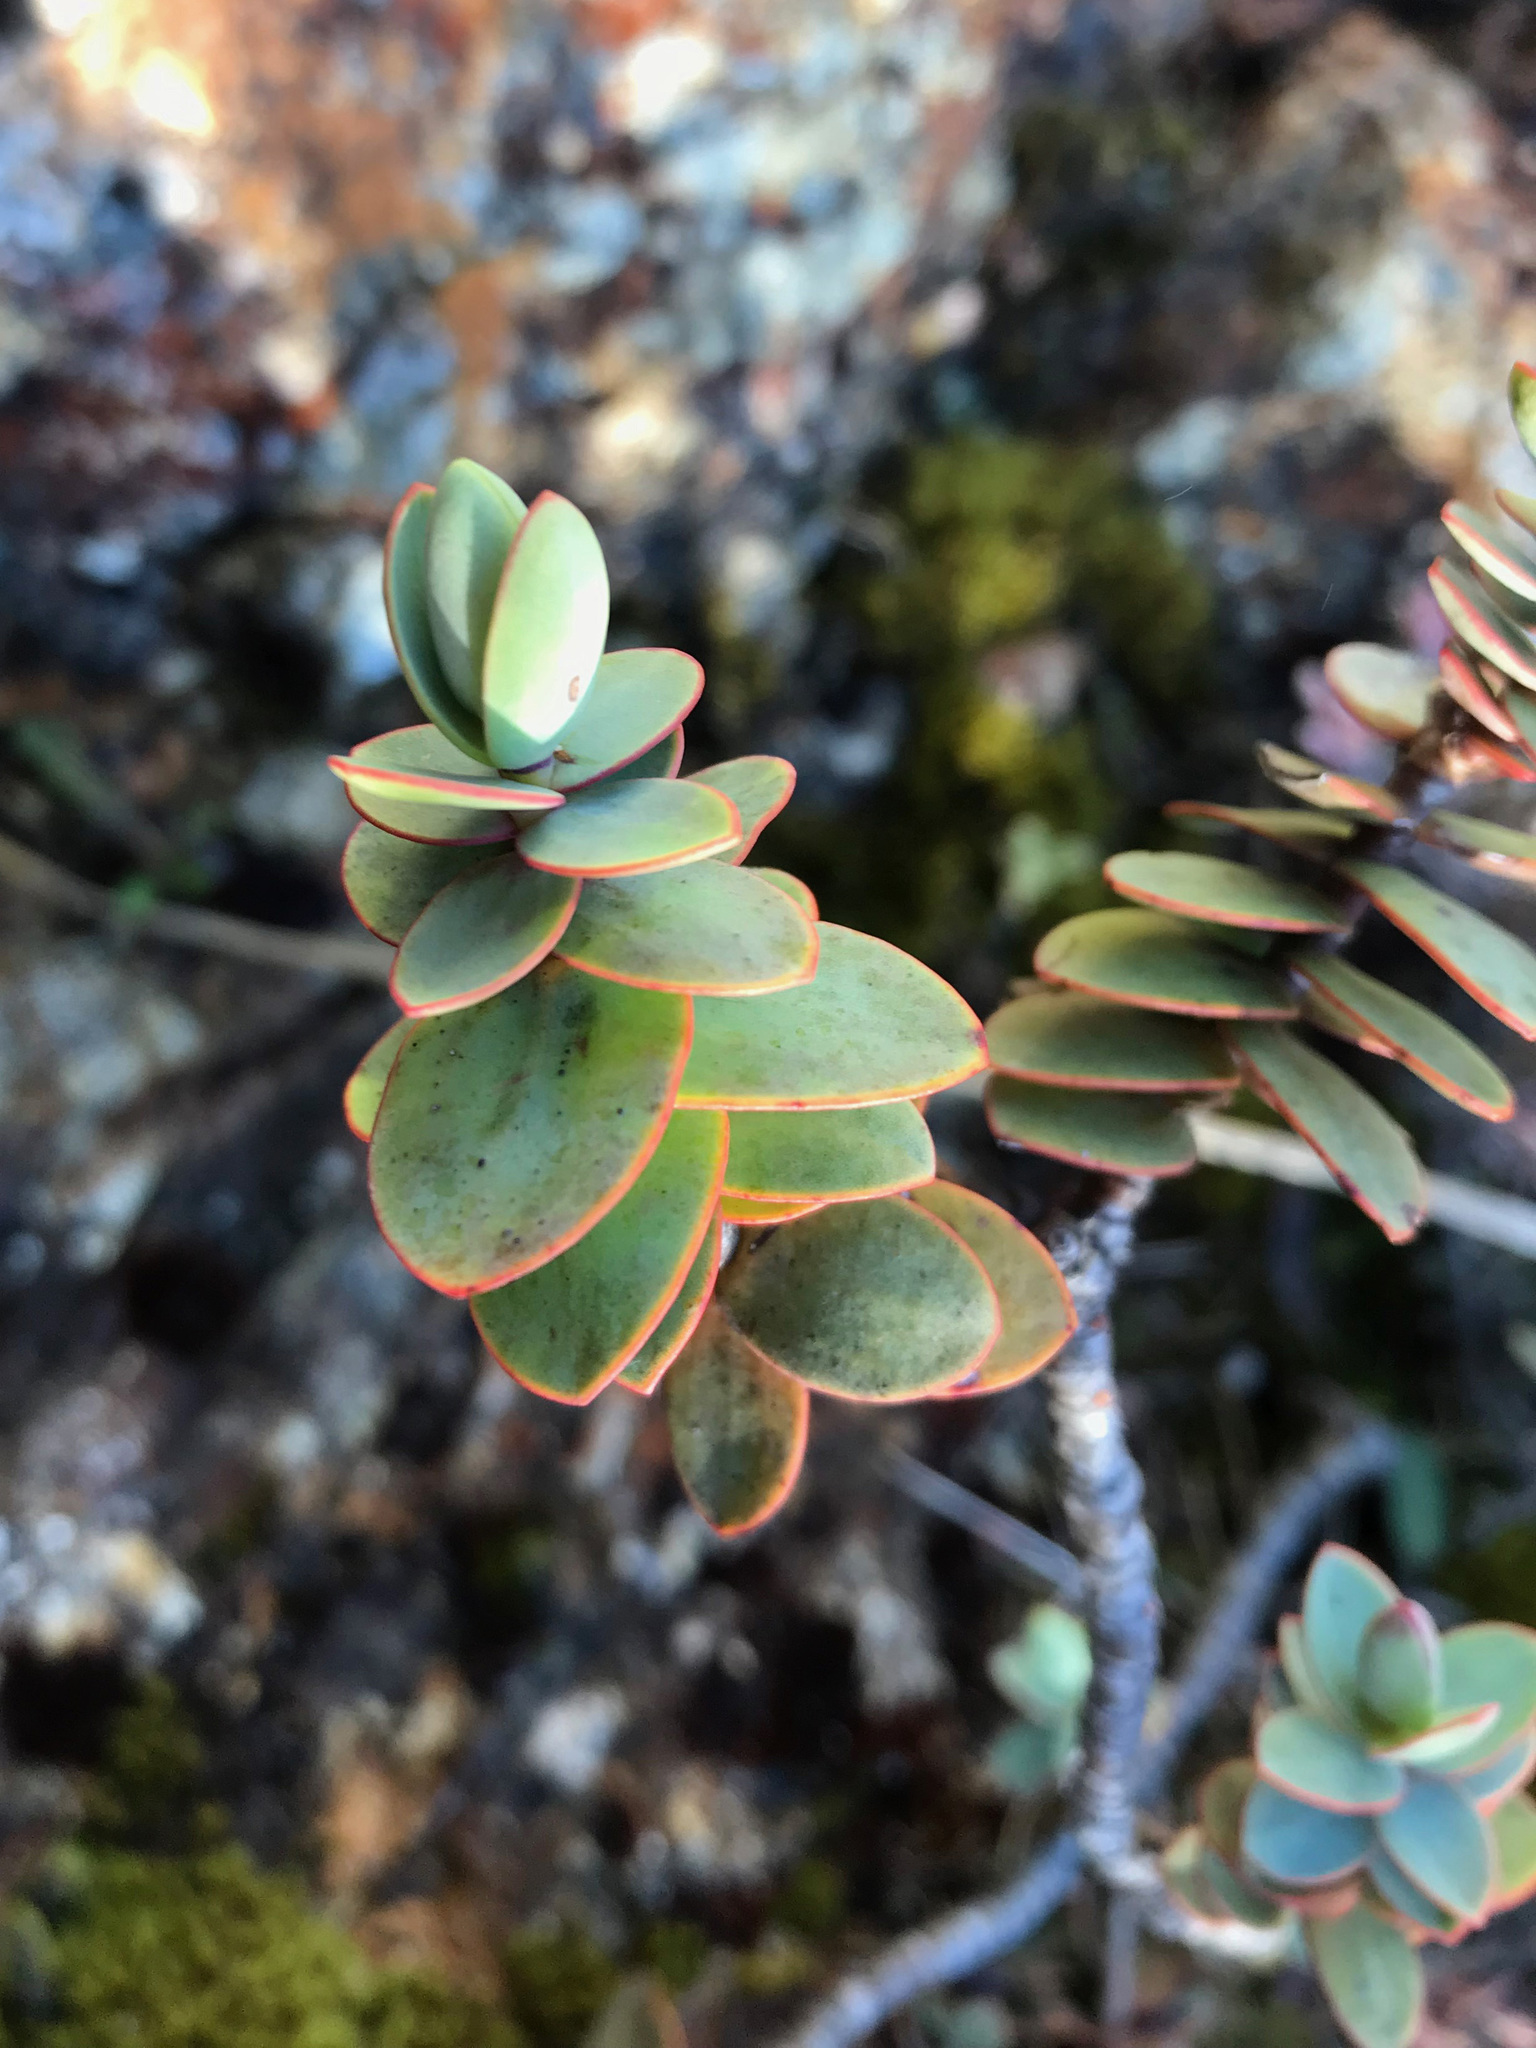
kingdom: Plantae
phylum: Tracheophyta
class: Magnoliopsida
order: Lamiales
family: Plantaginaceae
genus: Veronica
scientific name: Veronica amplexicaulis
